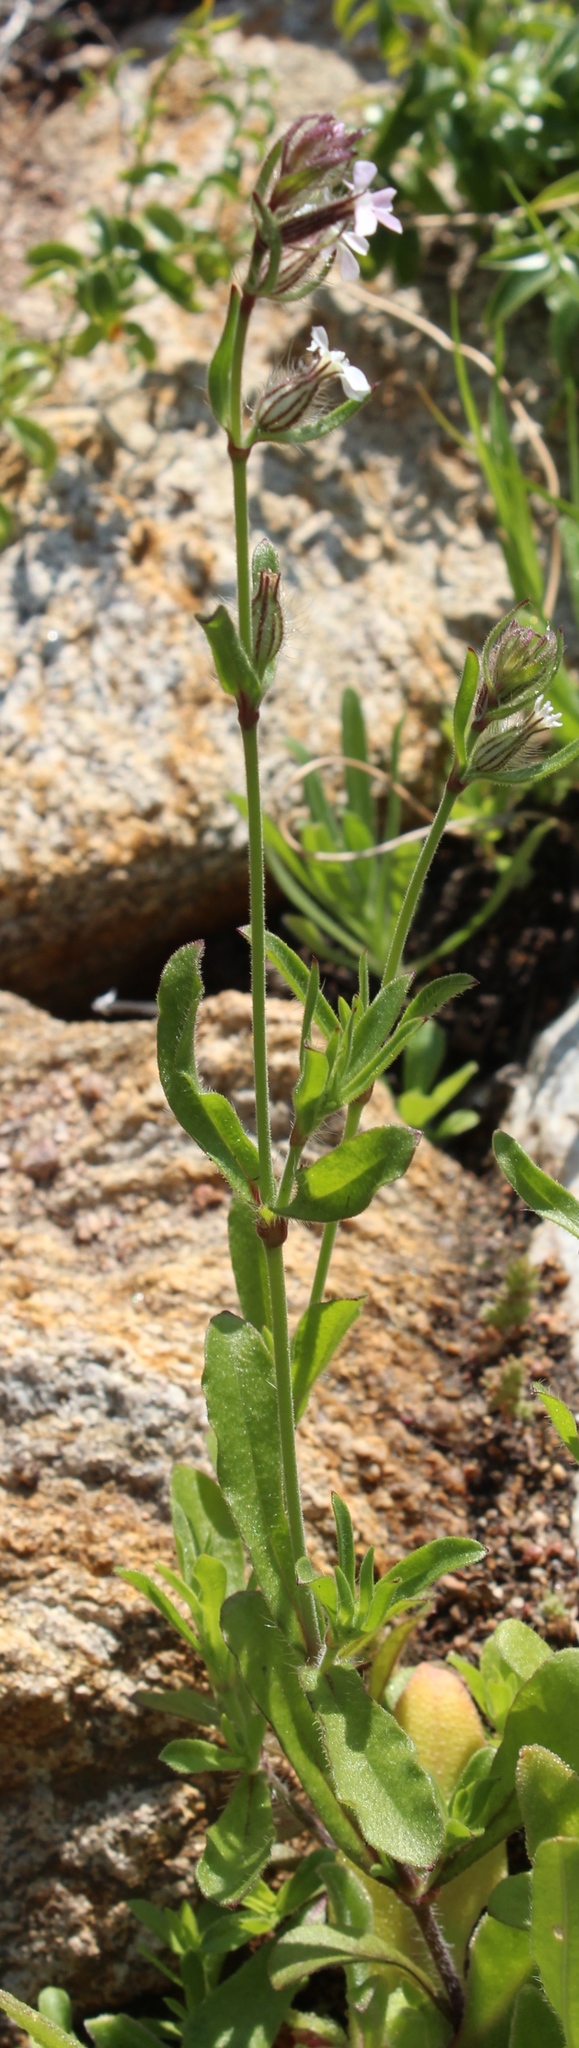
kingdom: Plantae
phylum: Tracheophyta
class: Magnoliopsida
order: Caryophyllales
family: Caryophyllaceae
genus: Silene
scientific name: Silene gallica
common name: Small-flowered catchfly
